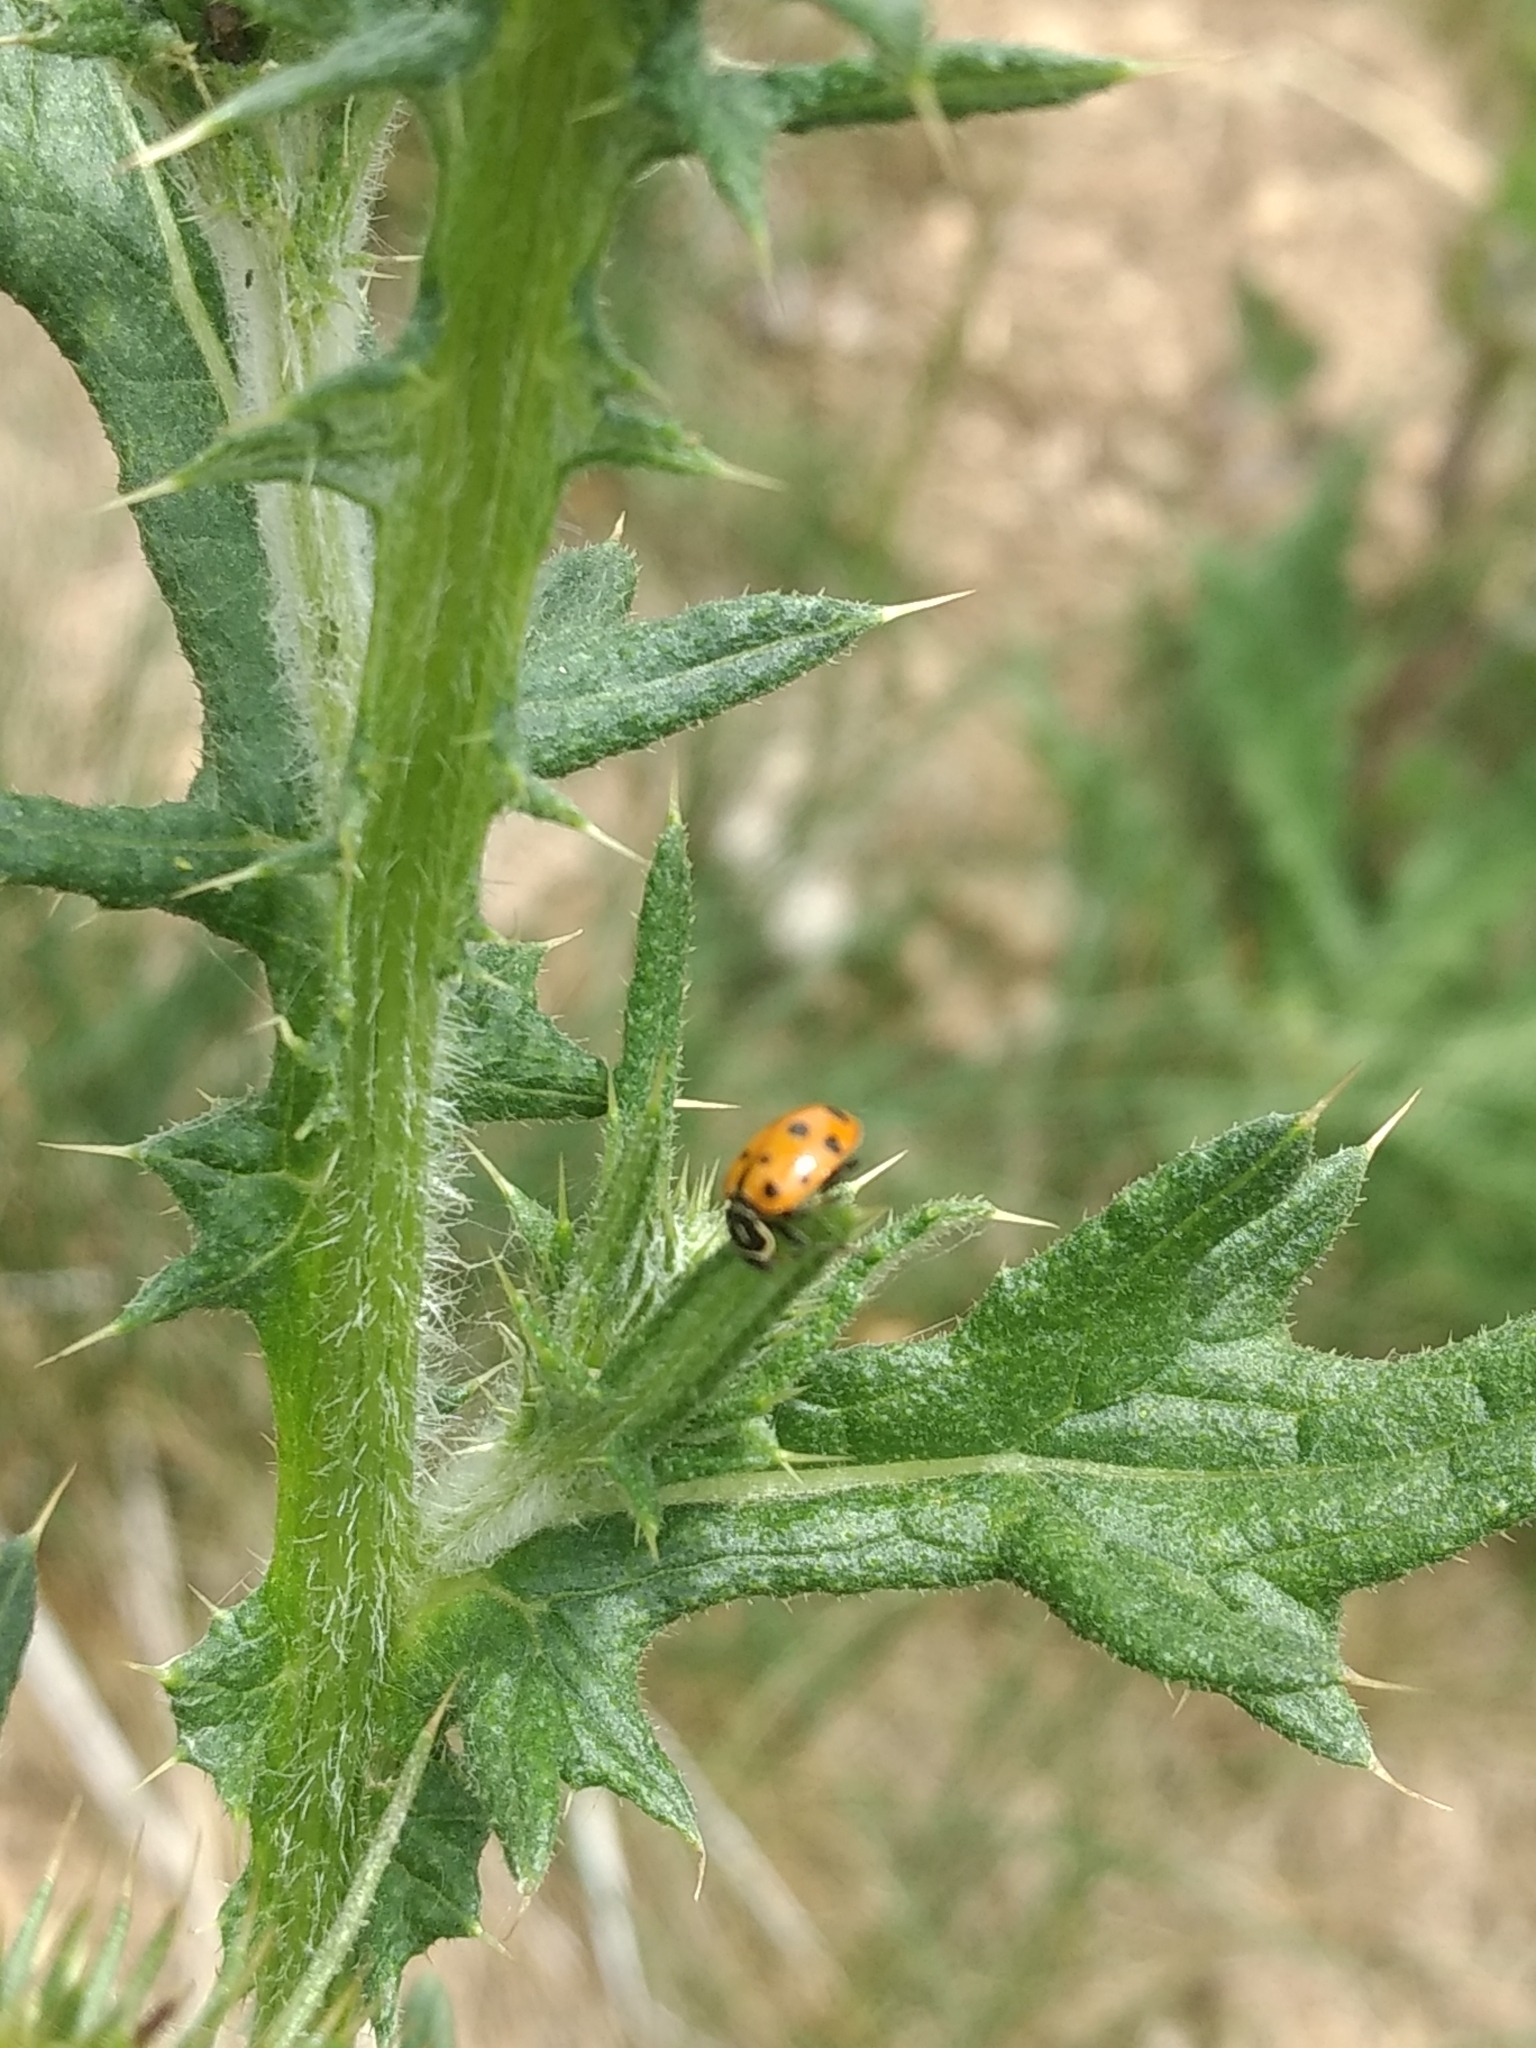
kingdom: Animalia
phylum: Arthropoda
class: Insecta
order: Coleoptera
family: Coccinellidae
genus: Hippodamia
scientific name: Hippodamia convergens
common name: Convergent lady beetle
